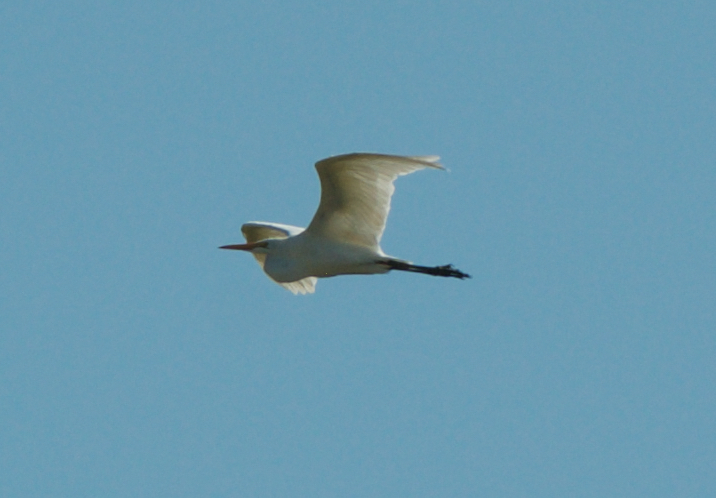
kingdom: Animalia
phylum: Chordata
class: Aves
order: Pelecaniformes
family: Ardeidae
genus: Ardea
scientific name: Ardea alba
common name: Great egret
